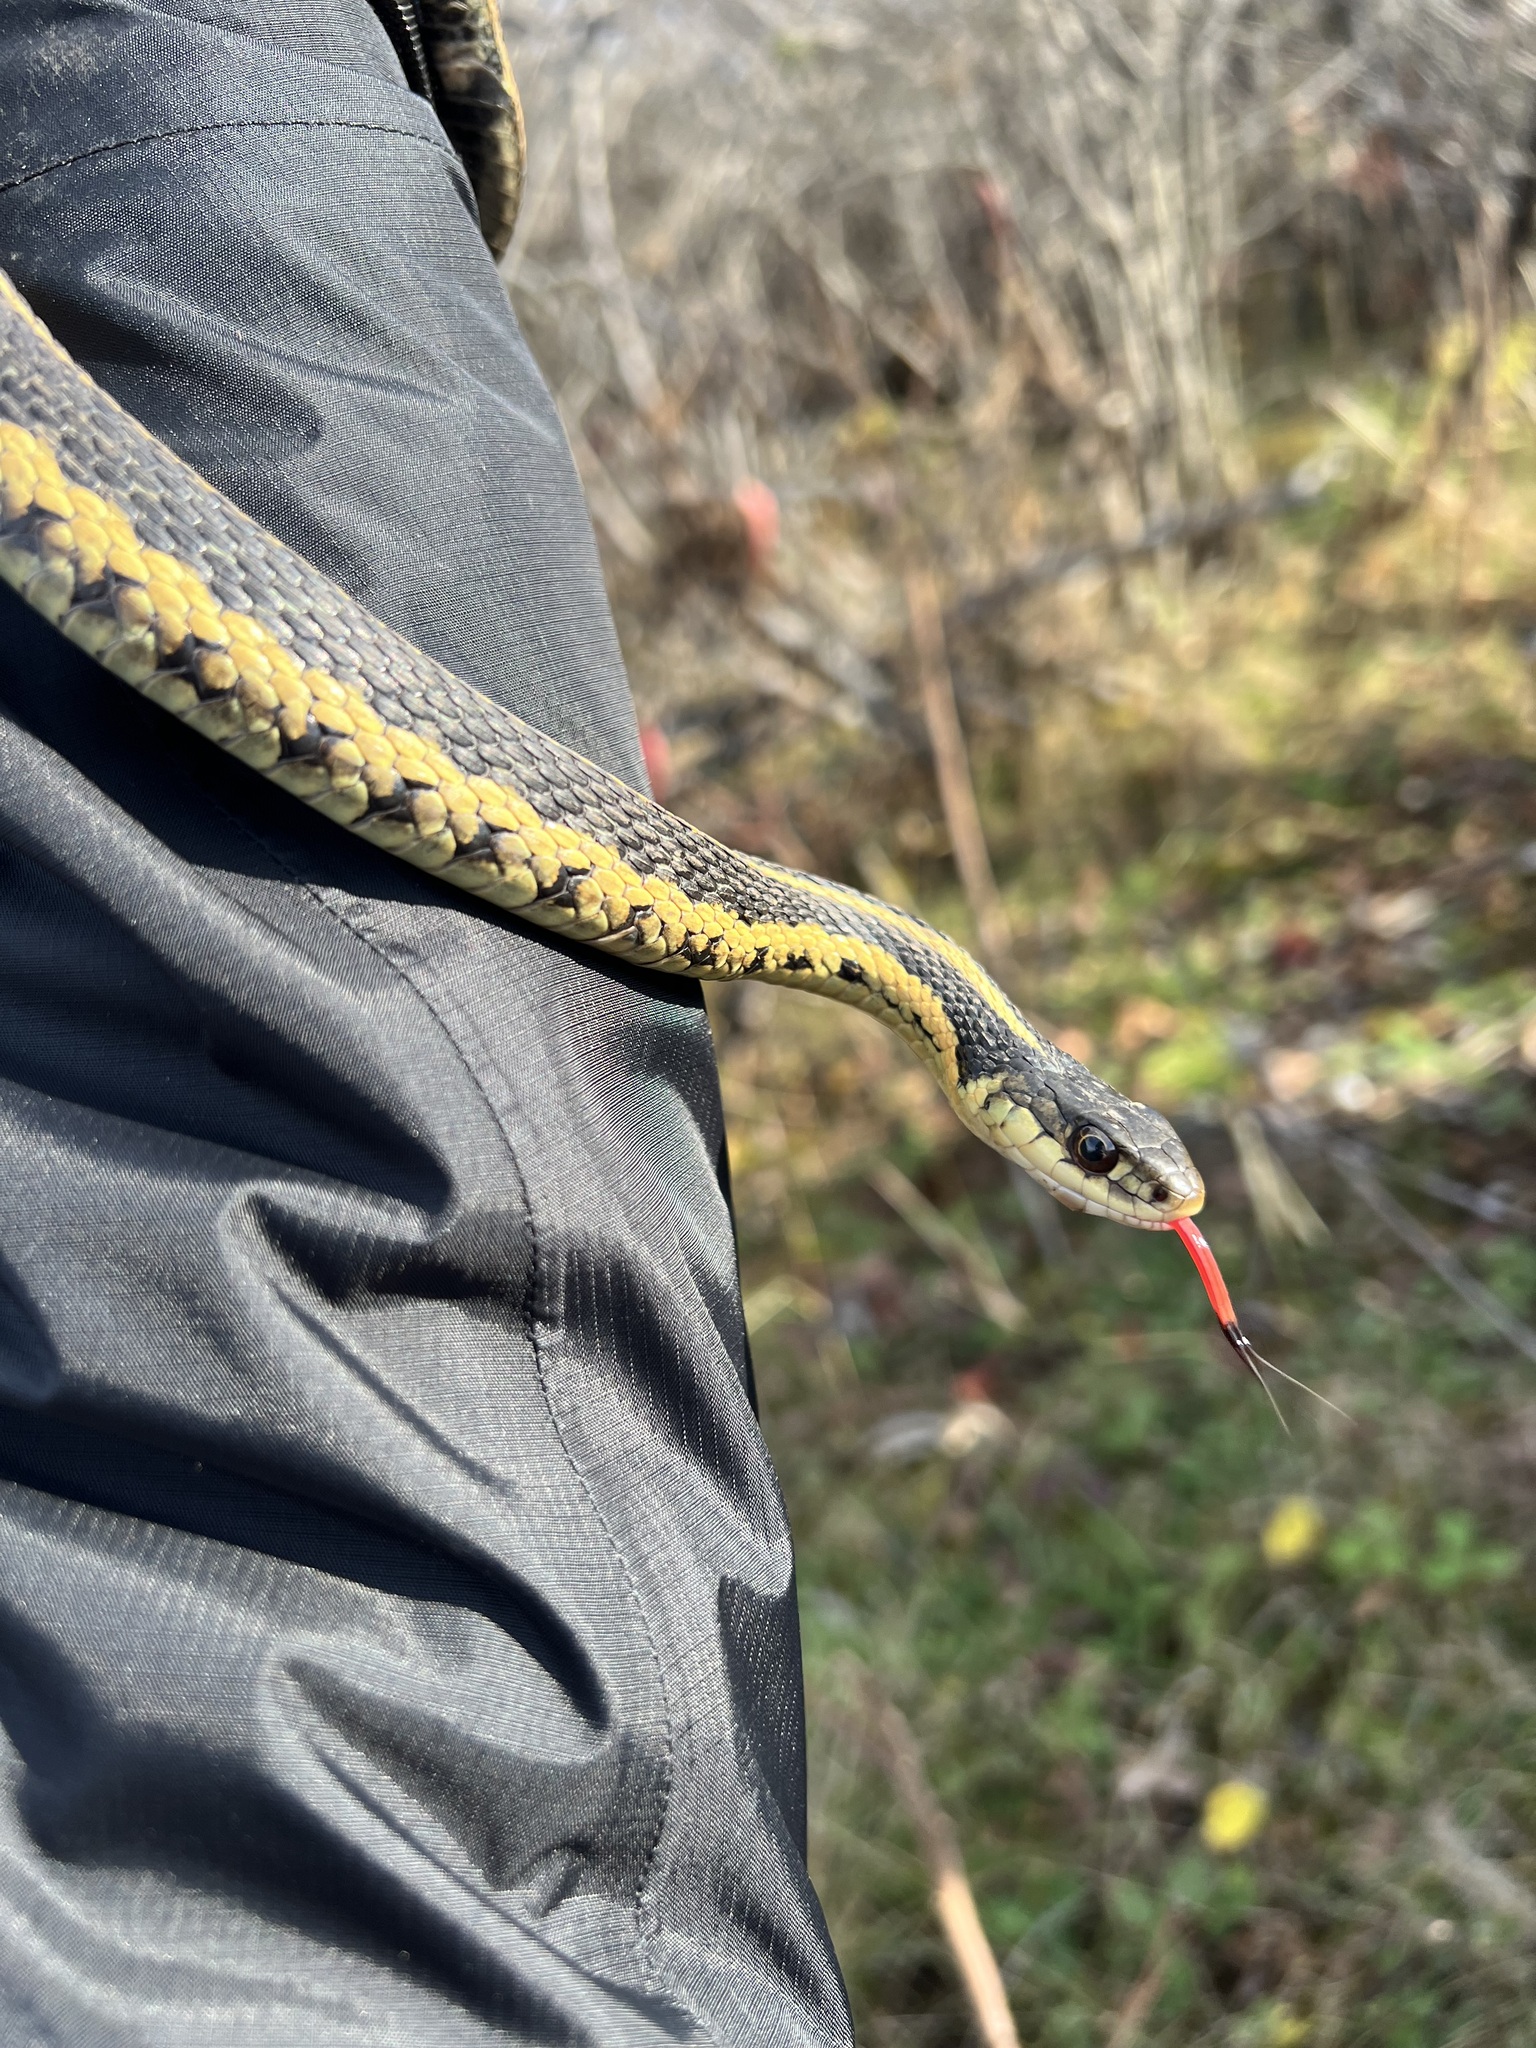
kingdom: Animalia
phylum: Chordata
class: Squamata
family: Colubridae
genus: Thamnophis
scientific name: Thamnophis sirtalis
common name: Common garter snake
